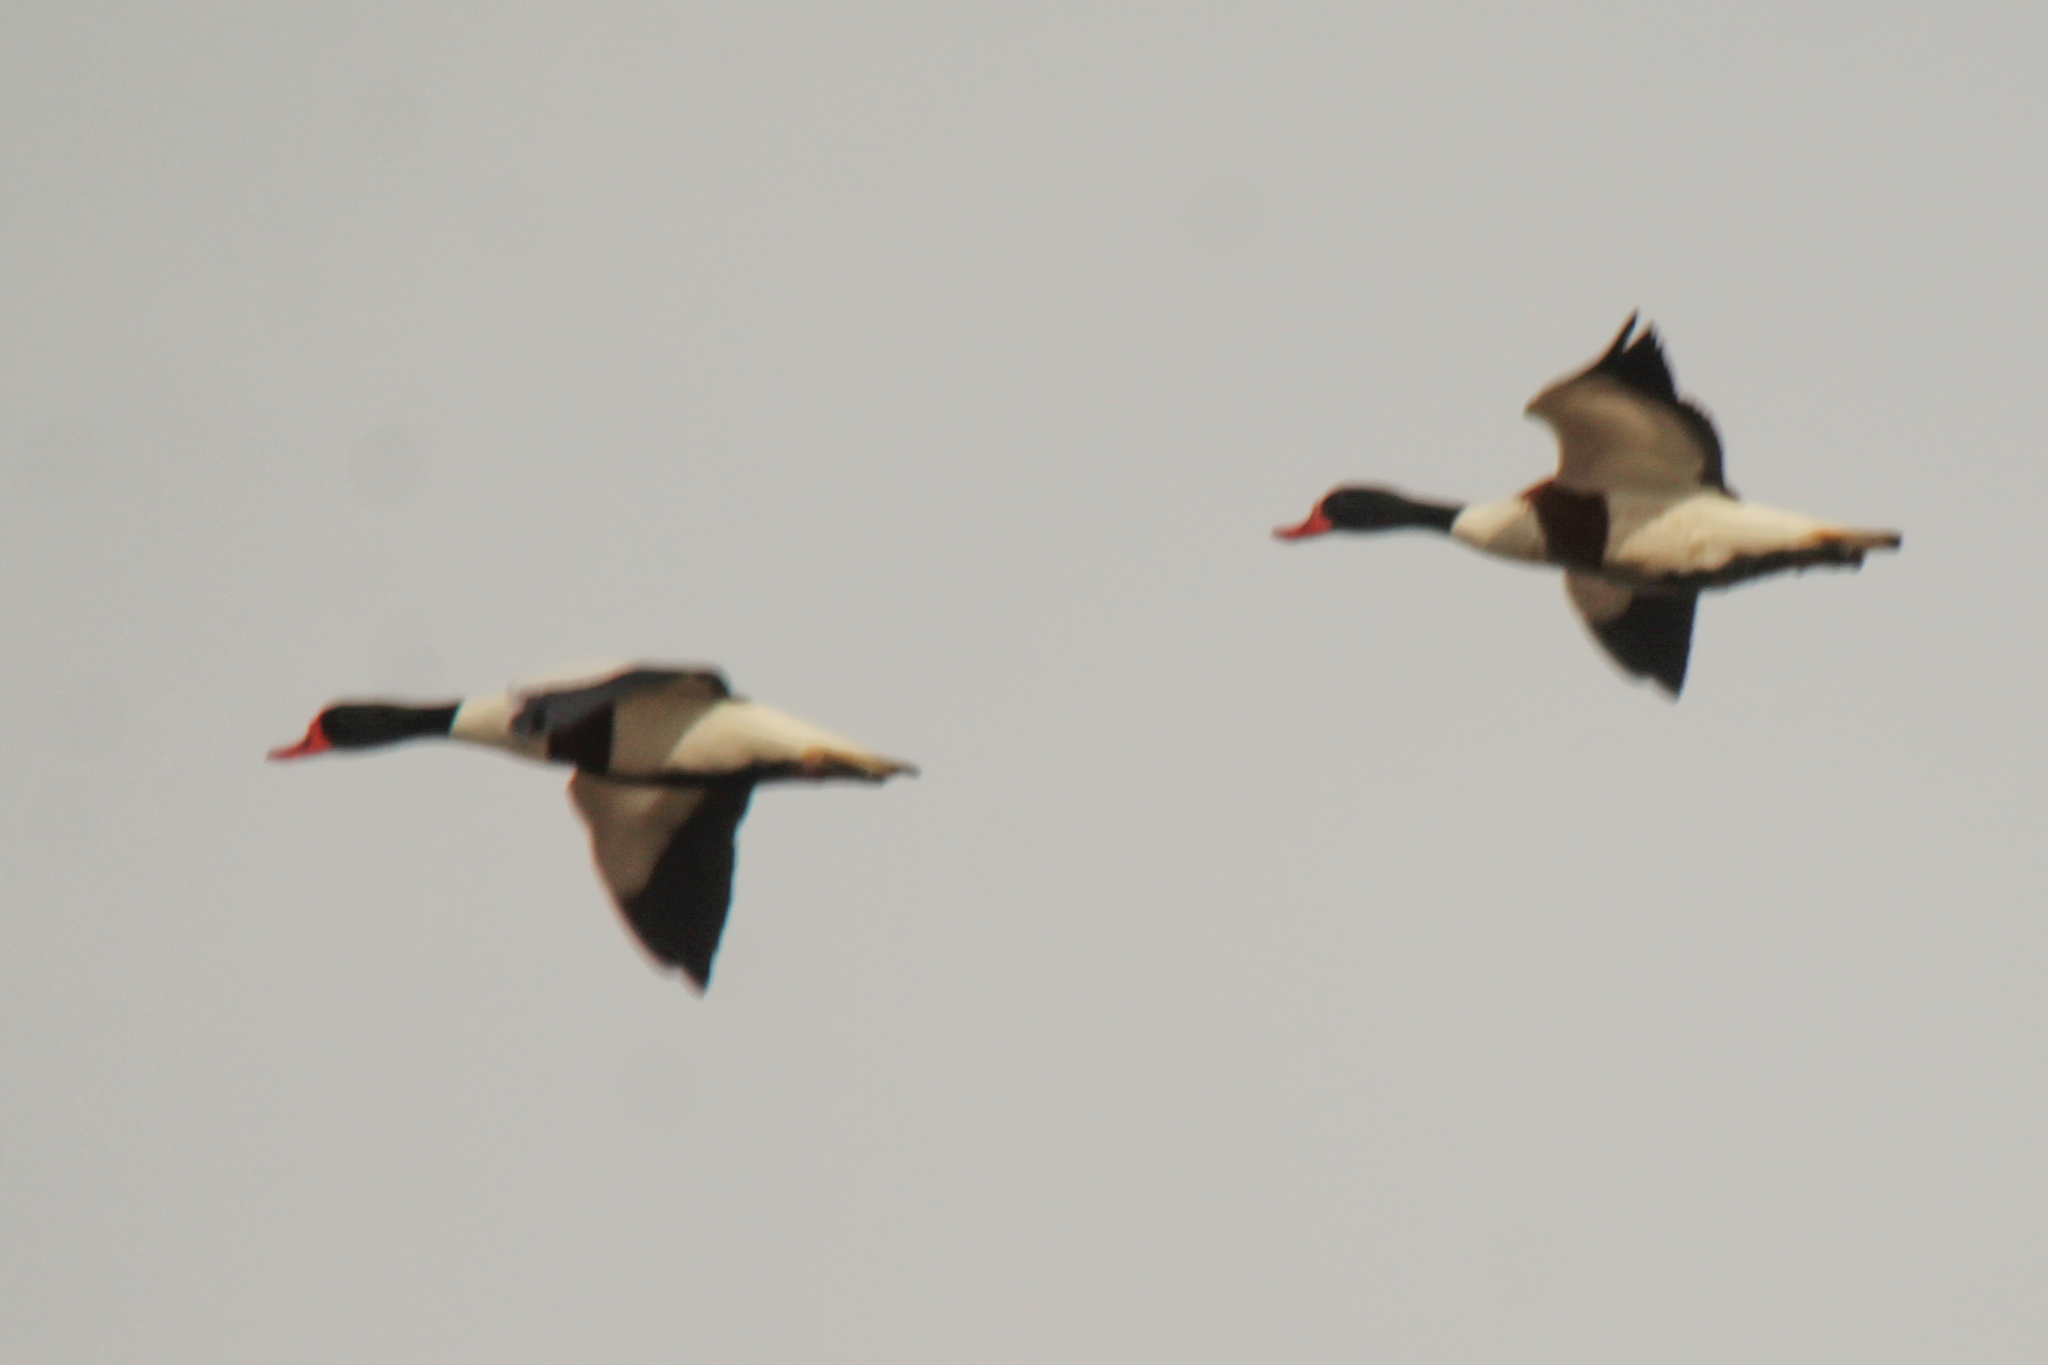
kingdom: Animalia
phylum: Chordata
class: Aves
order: Anseriformes
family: Anatidae
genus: Tadorna
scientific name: Tadorna tadorna
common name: Common shelduck
